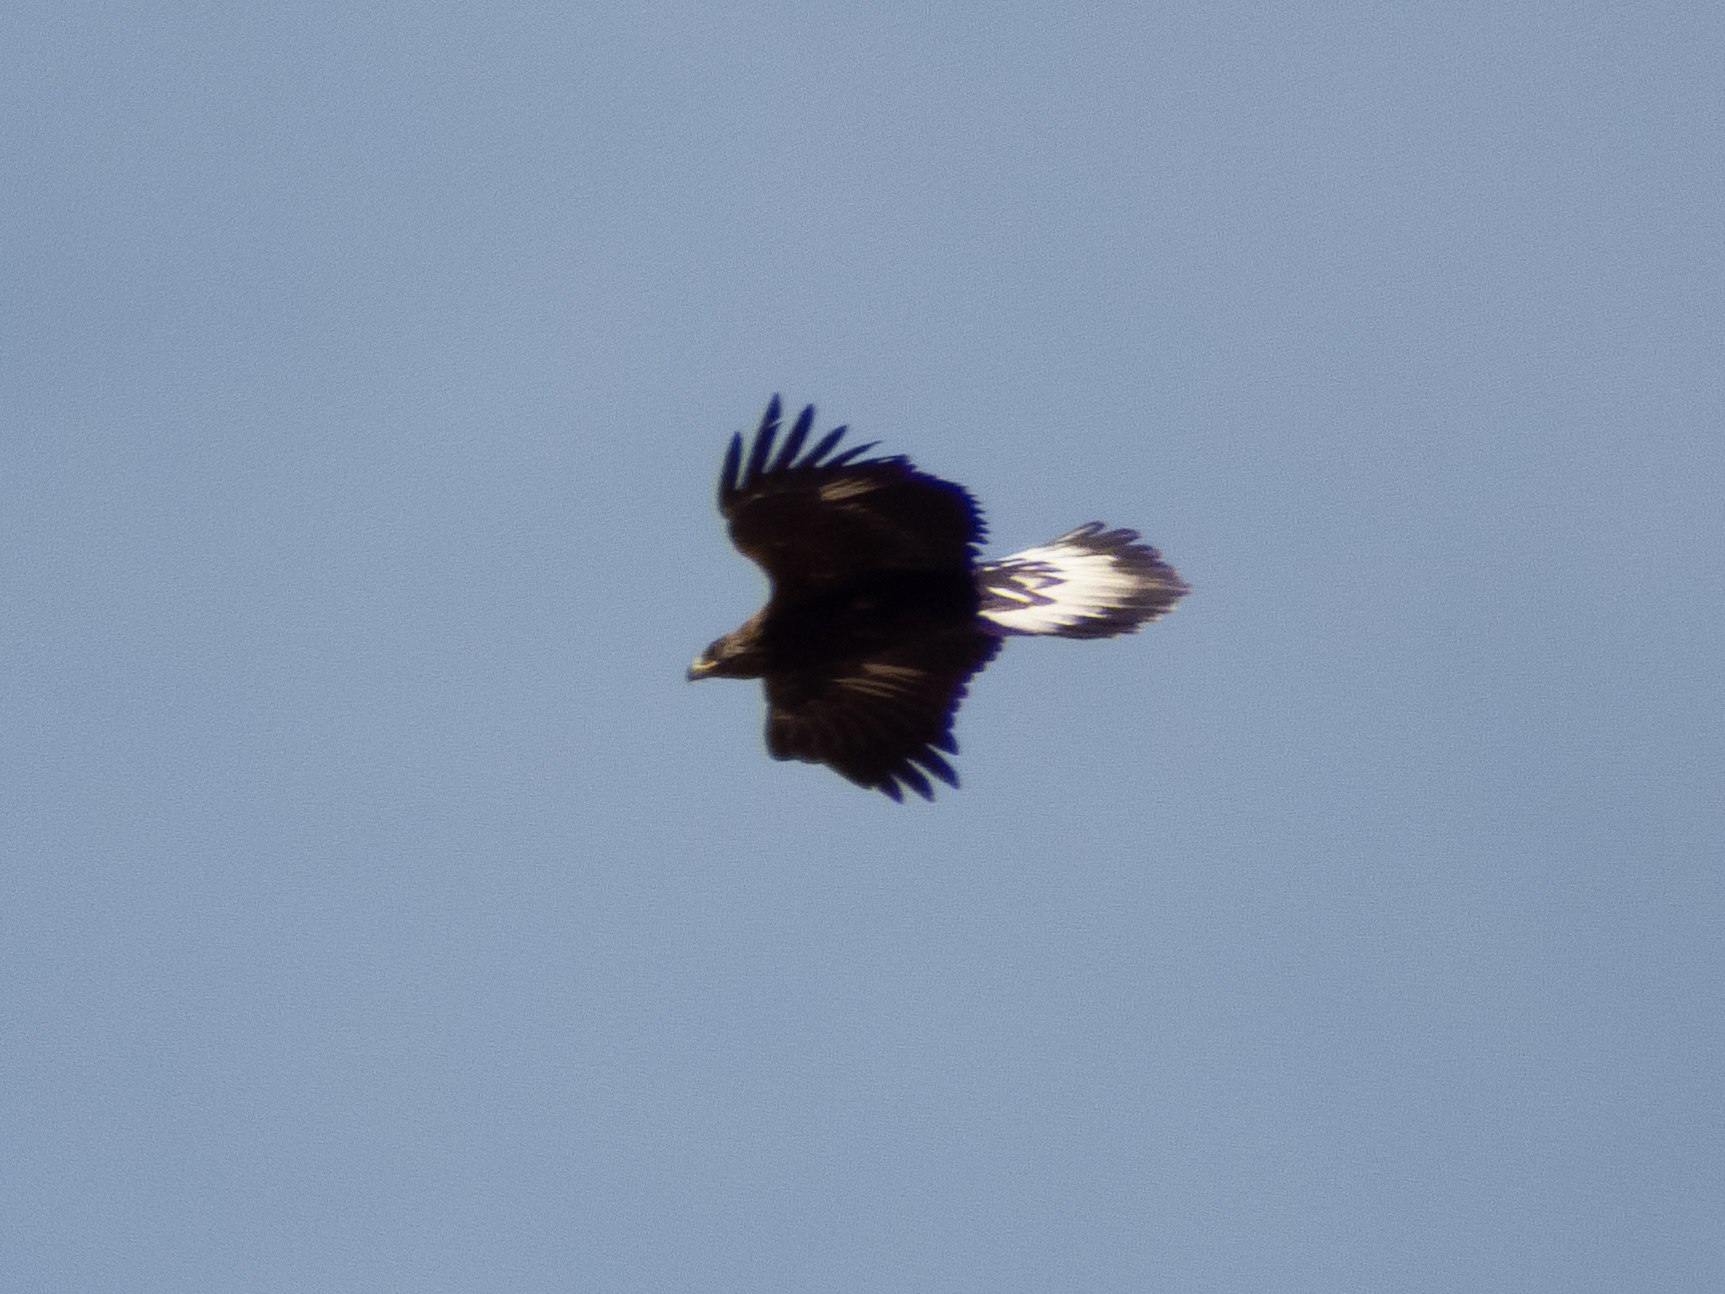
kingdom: Animalia
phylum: Chordata
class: Aves
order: Accipitriformes
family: Accipitridae
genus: Aquila
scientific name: Aquila chrysaetos
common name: Golden eagle
